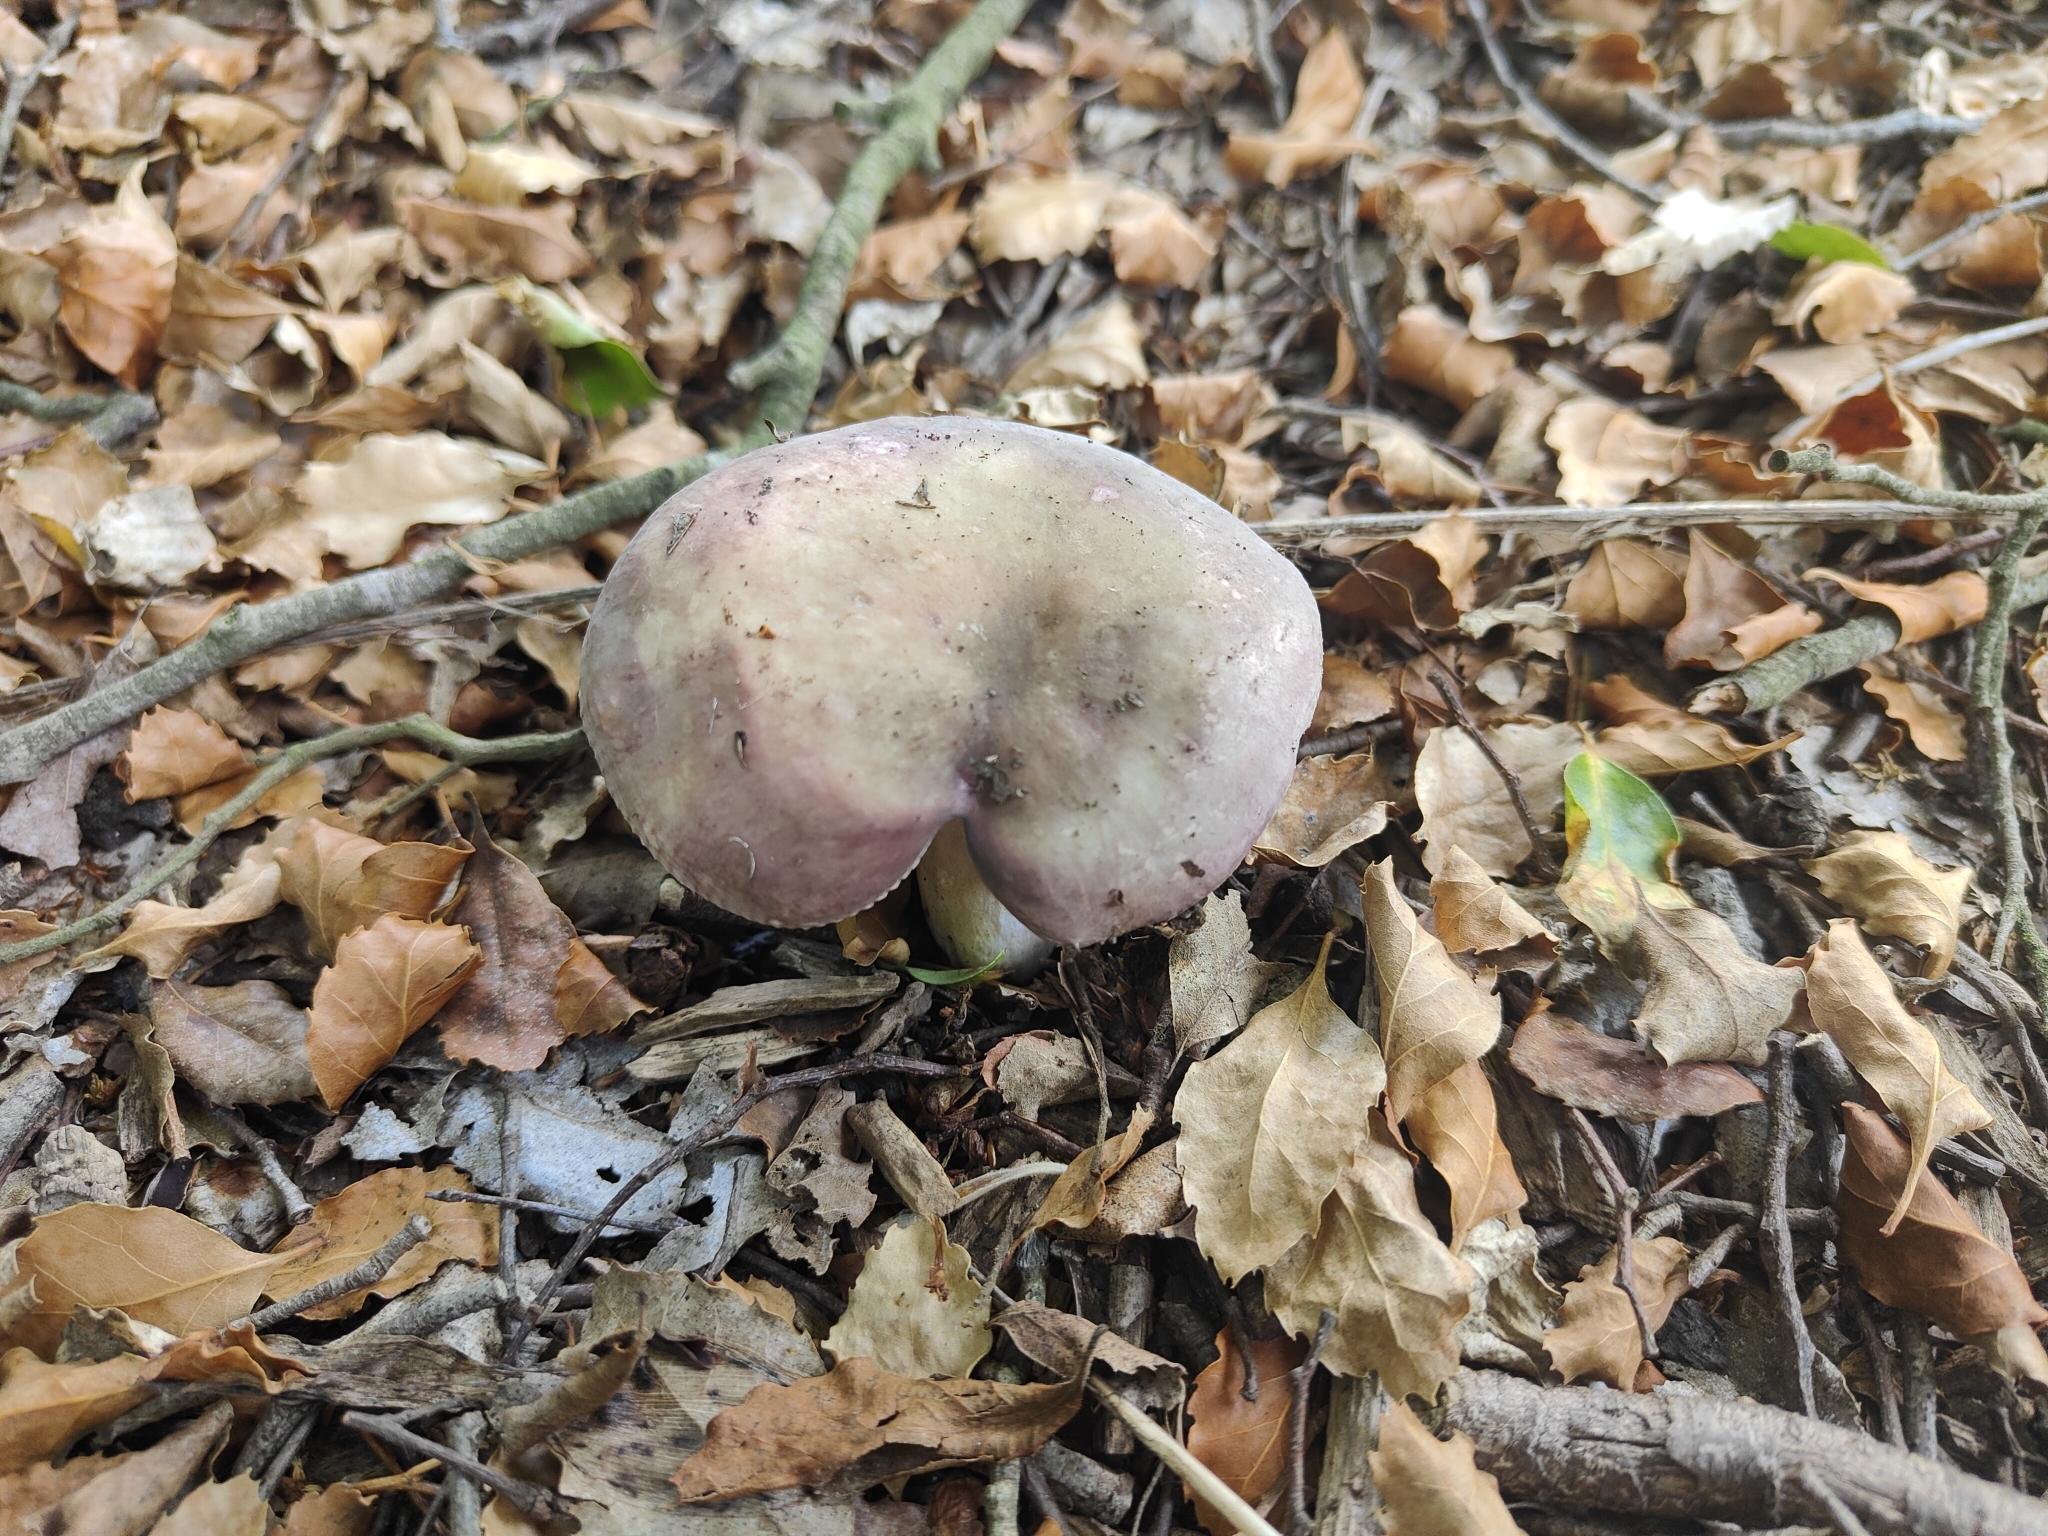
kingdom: Fungi
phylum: Basidiomycota
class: Agaricomycetes
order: Russulales
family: Russulaceae
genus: Russula
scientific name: Russula grisea
